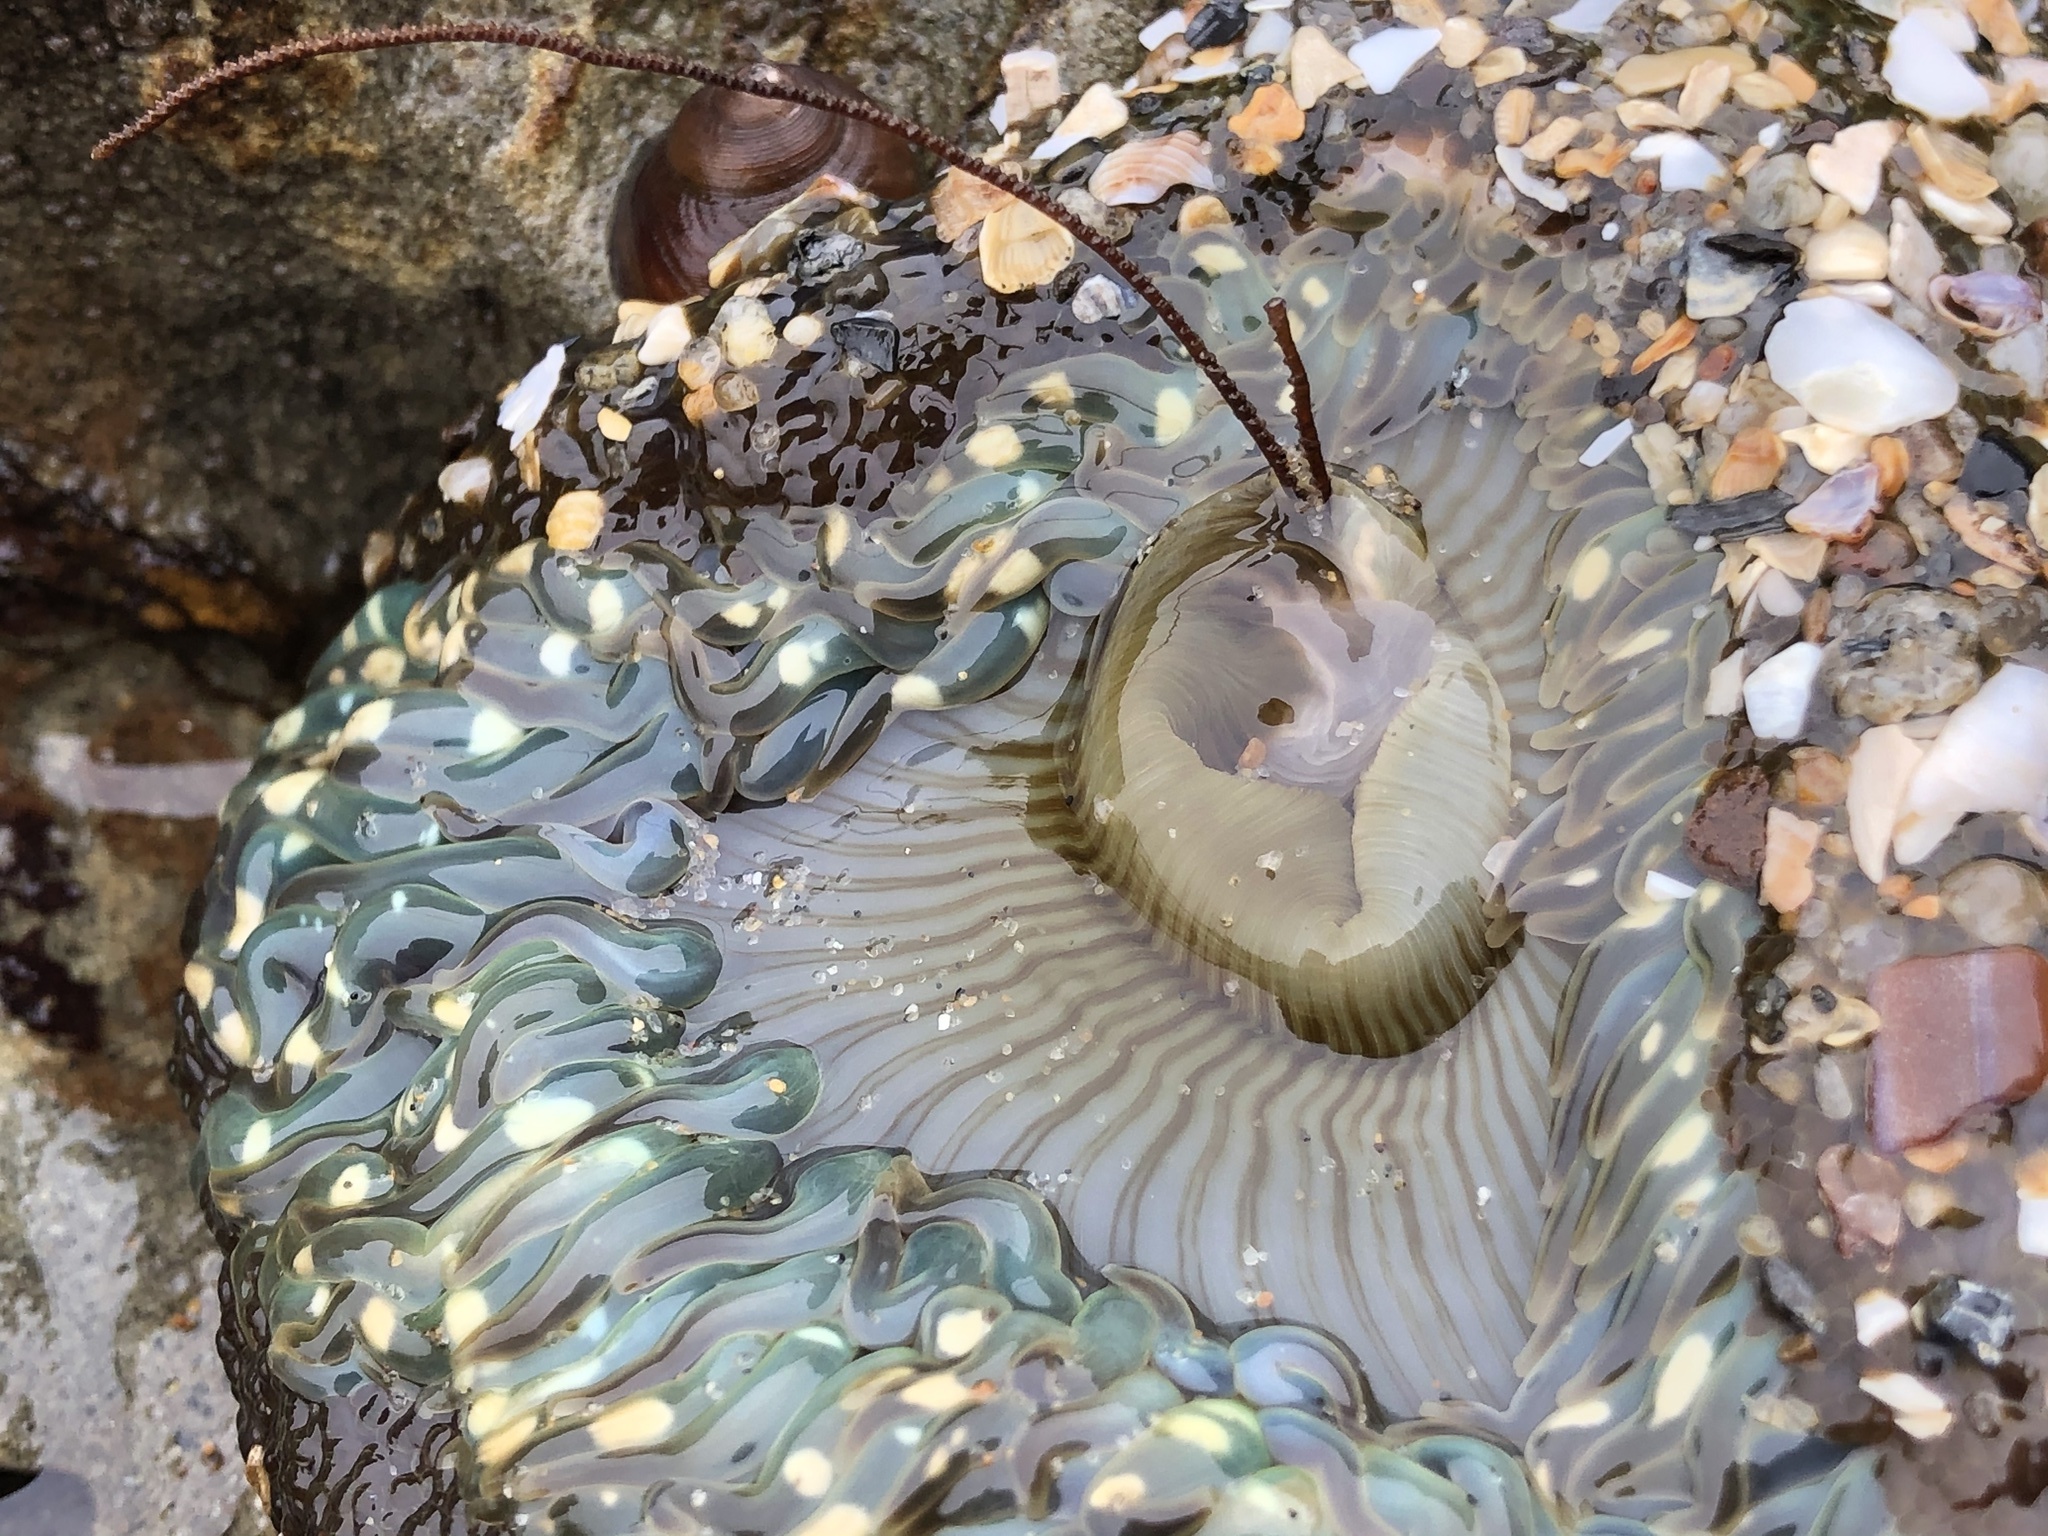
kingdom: Animalia
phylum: Cnidaria
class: Anthozoa
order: Actiniaria
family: Actiniidae
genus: Anthopleura
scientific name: Anthopleura sola
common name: Sun anemone
